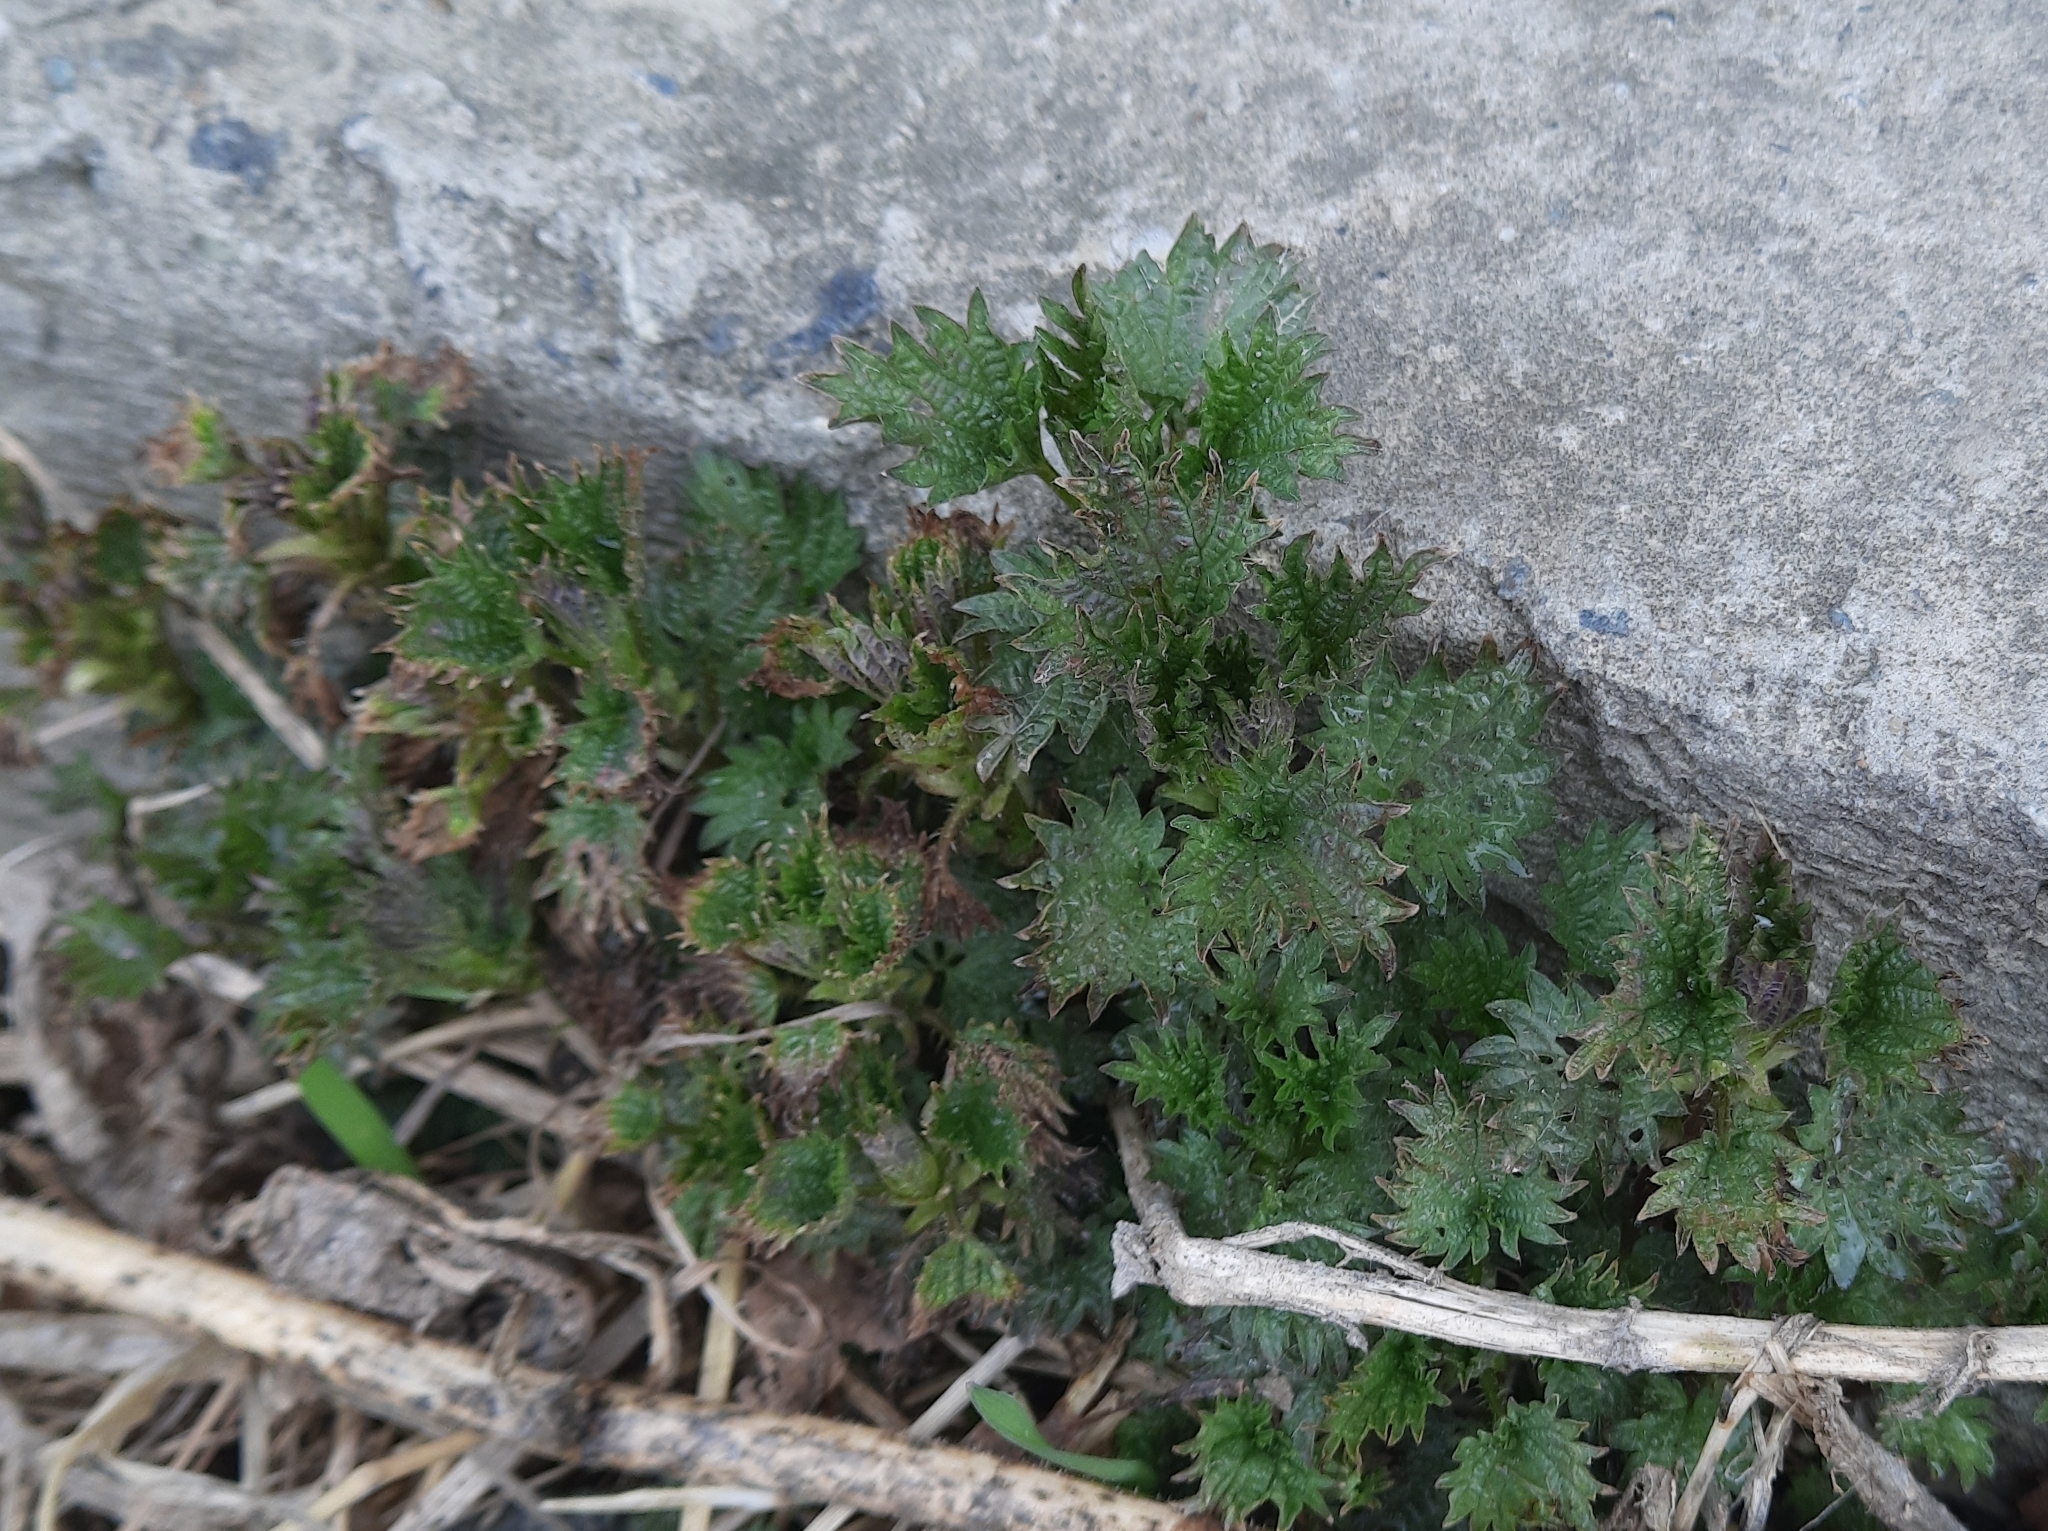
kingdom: Plantae
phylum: Tracheophyta
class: Magnoliopsida
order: Rosales
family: Urticaceae
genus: Urtica
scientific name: Urtica dioica
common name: Common nettle
